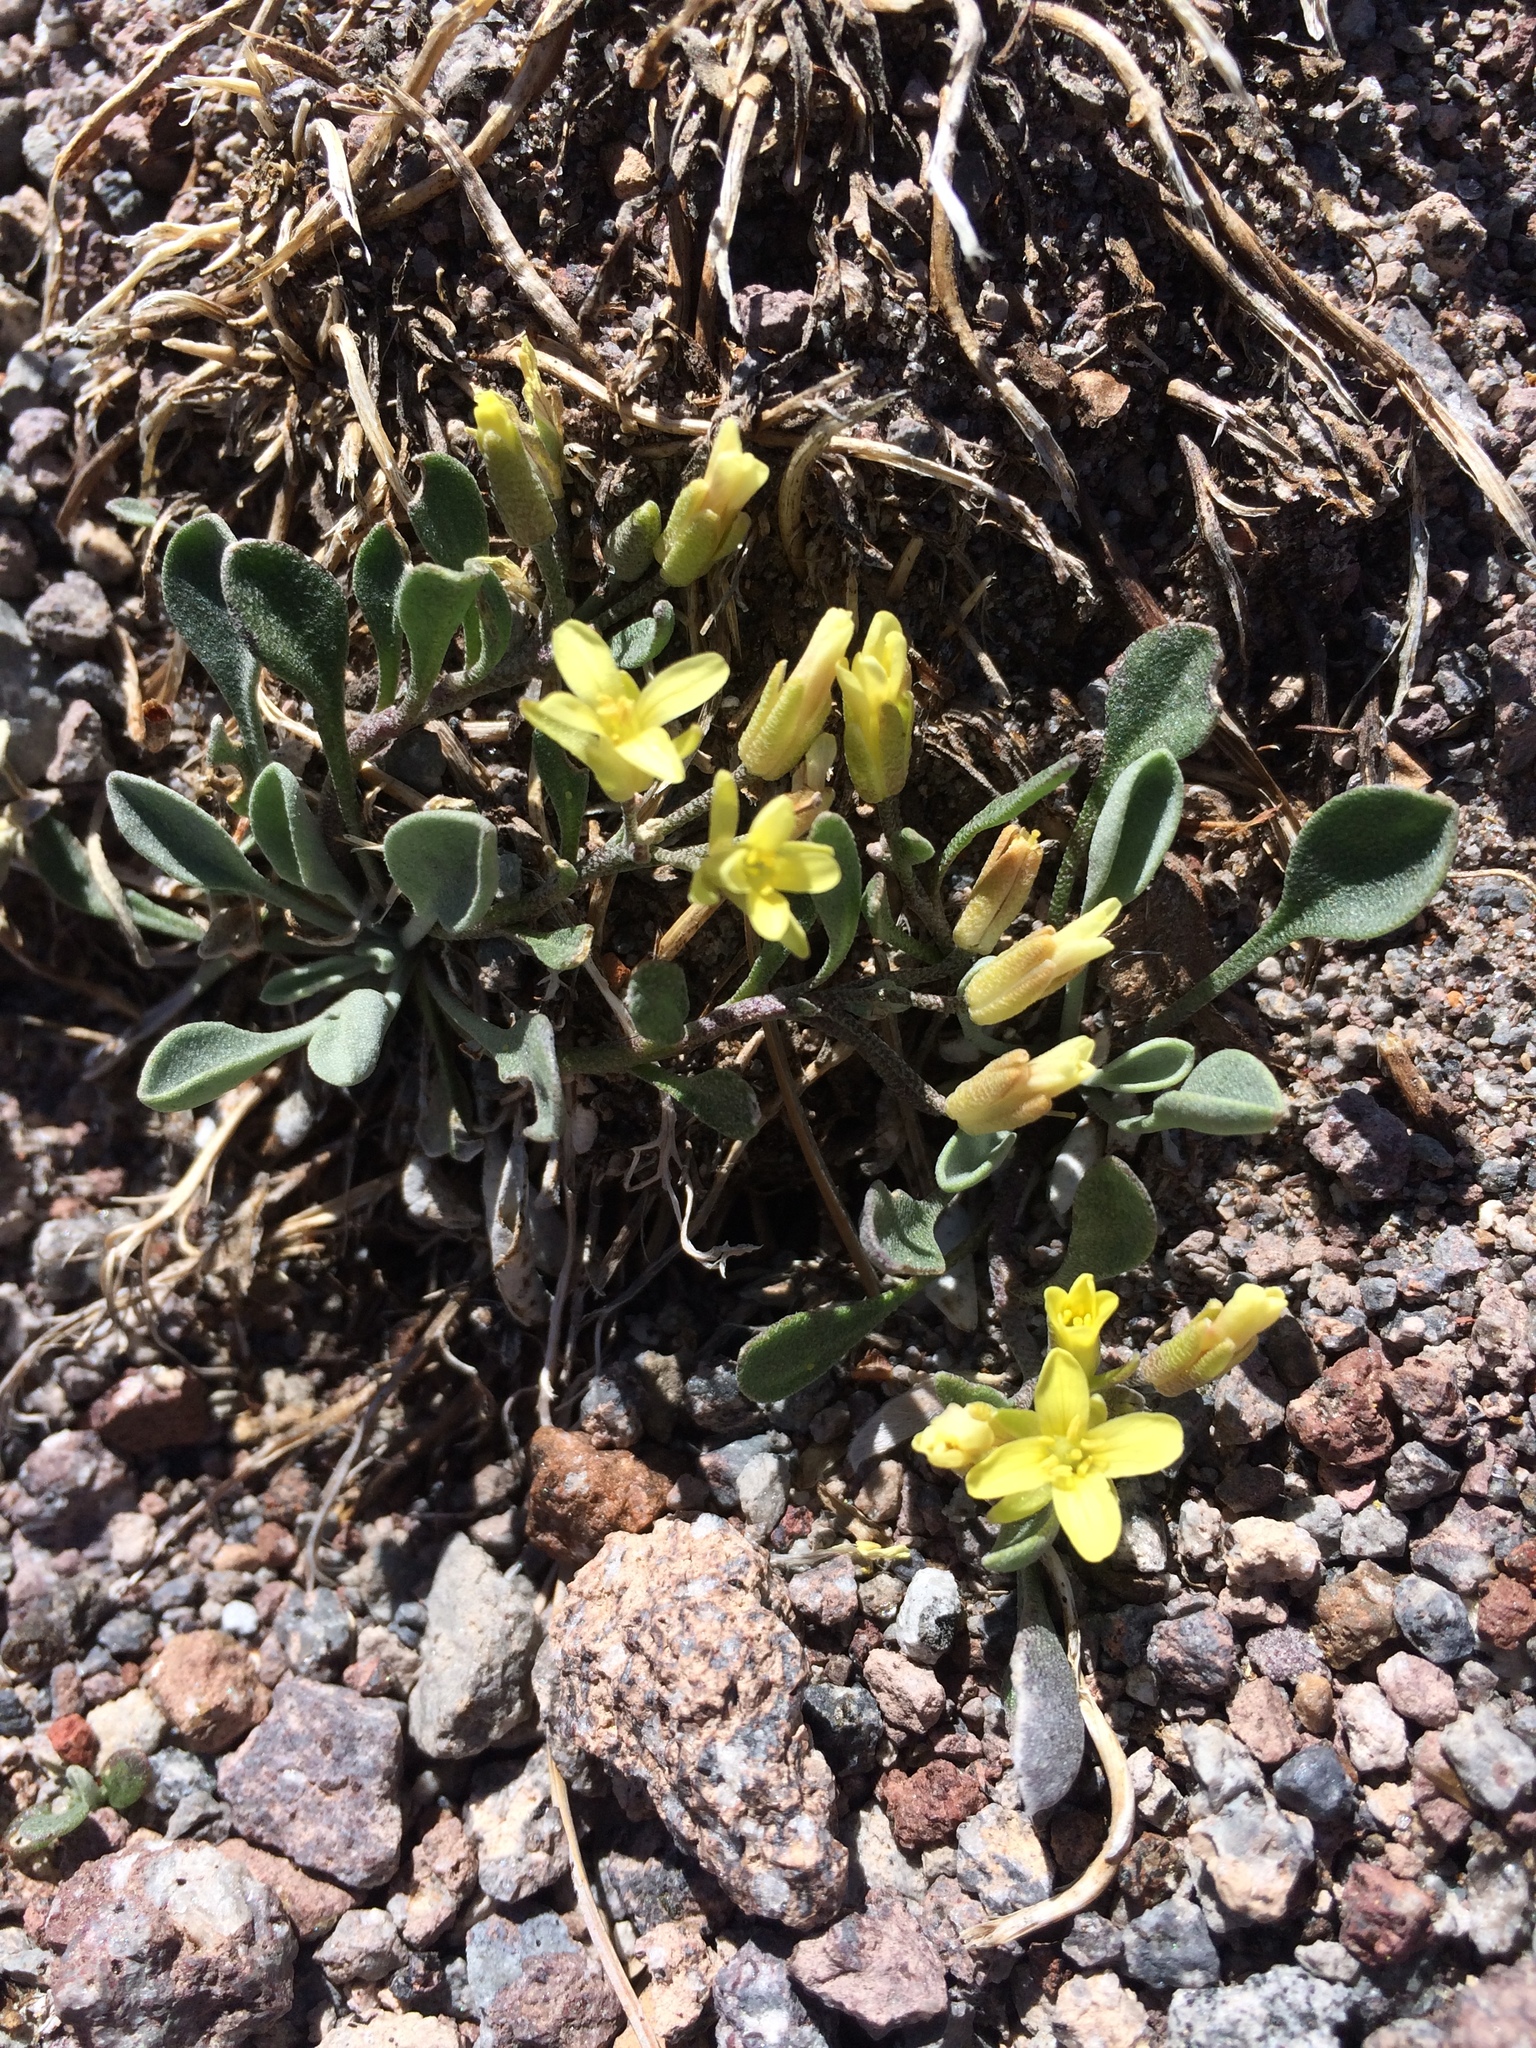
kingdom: Plantae
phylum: Tracheophyta
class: Magnoliopsida
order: Brassicales
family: Brassicaceae
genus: Physaria
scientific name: Physaria occidentalis
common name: Western bladderpod
